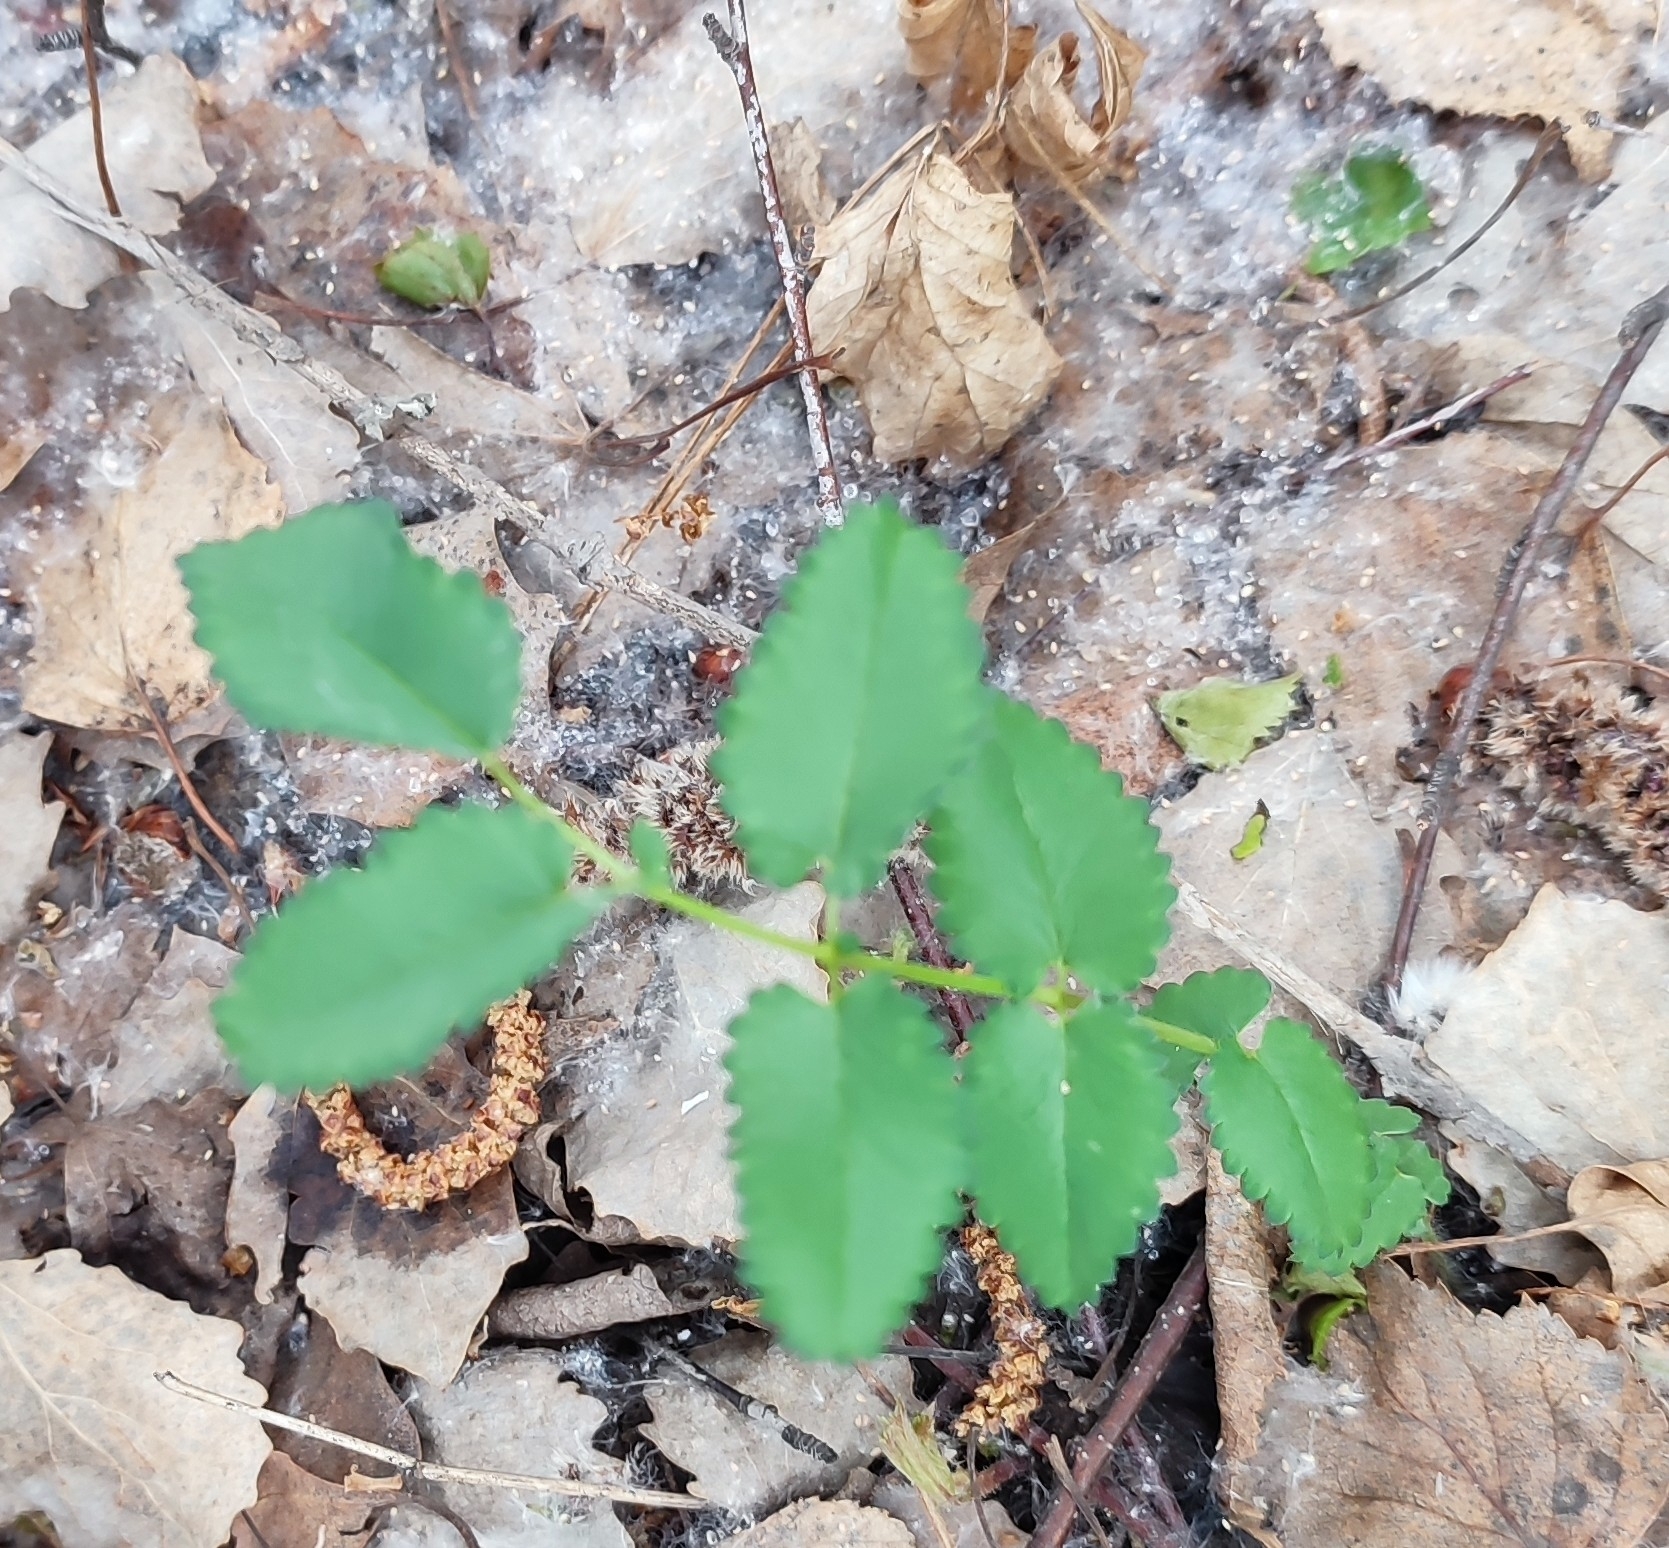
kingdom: Plantae
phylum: Tracheophyta
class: Magnoliopsida
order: Rosales
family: Rosaceae
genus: Sanguisorba
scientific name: Sanguisorba officinalis
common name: Great burnet
